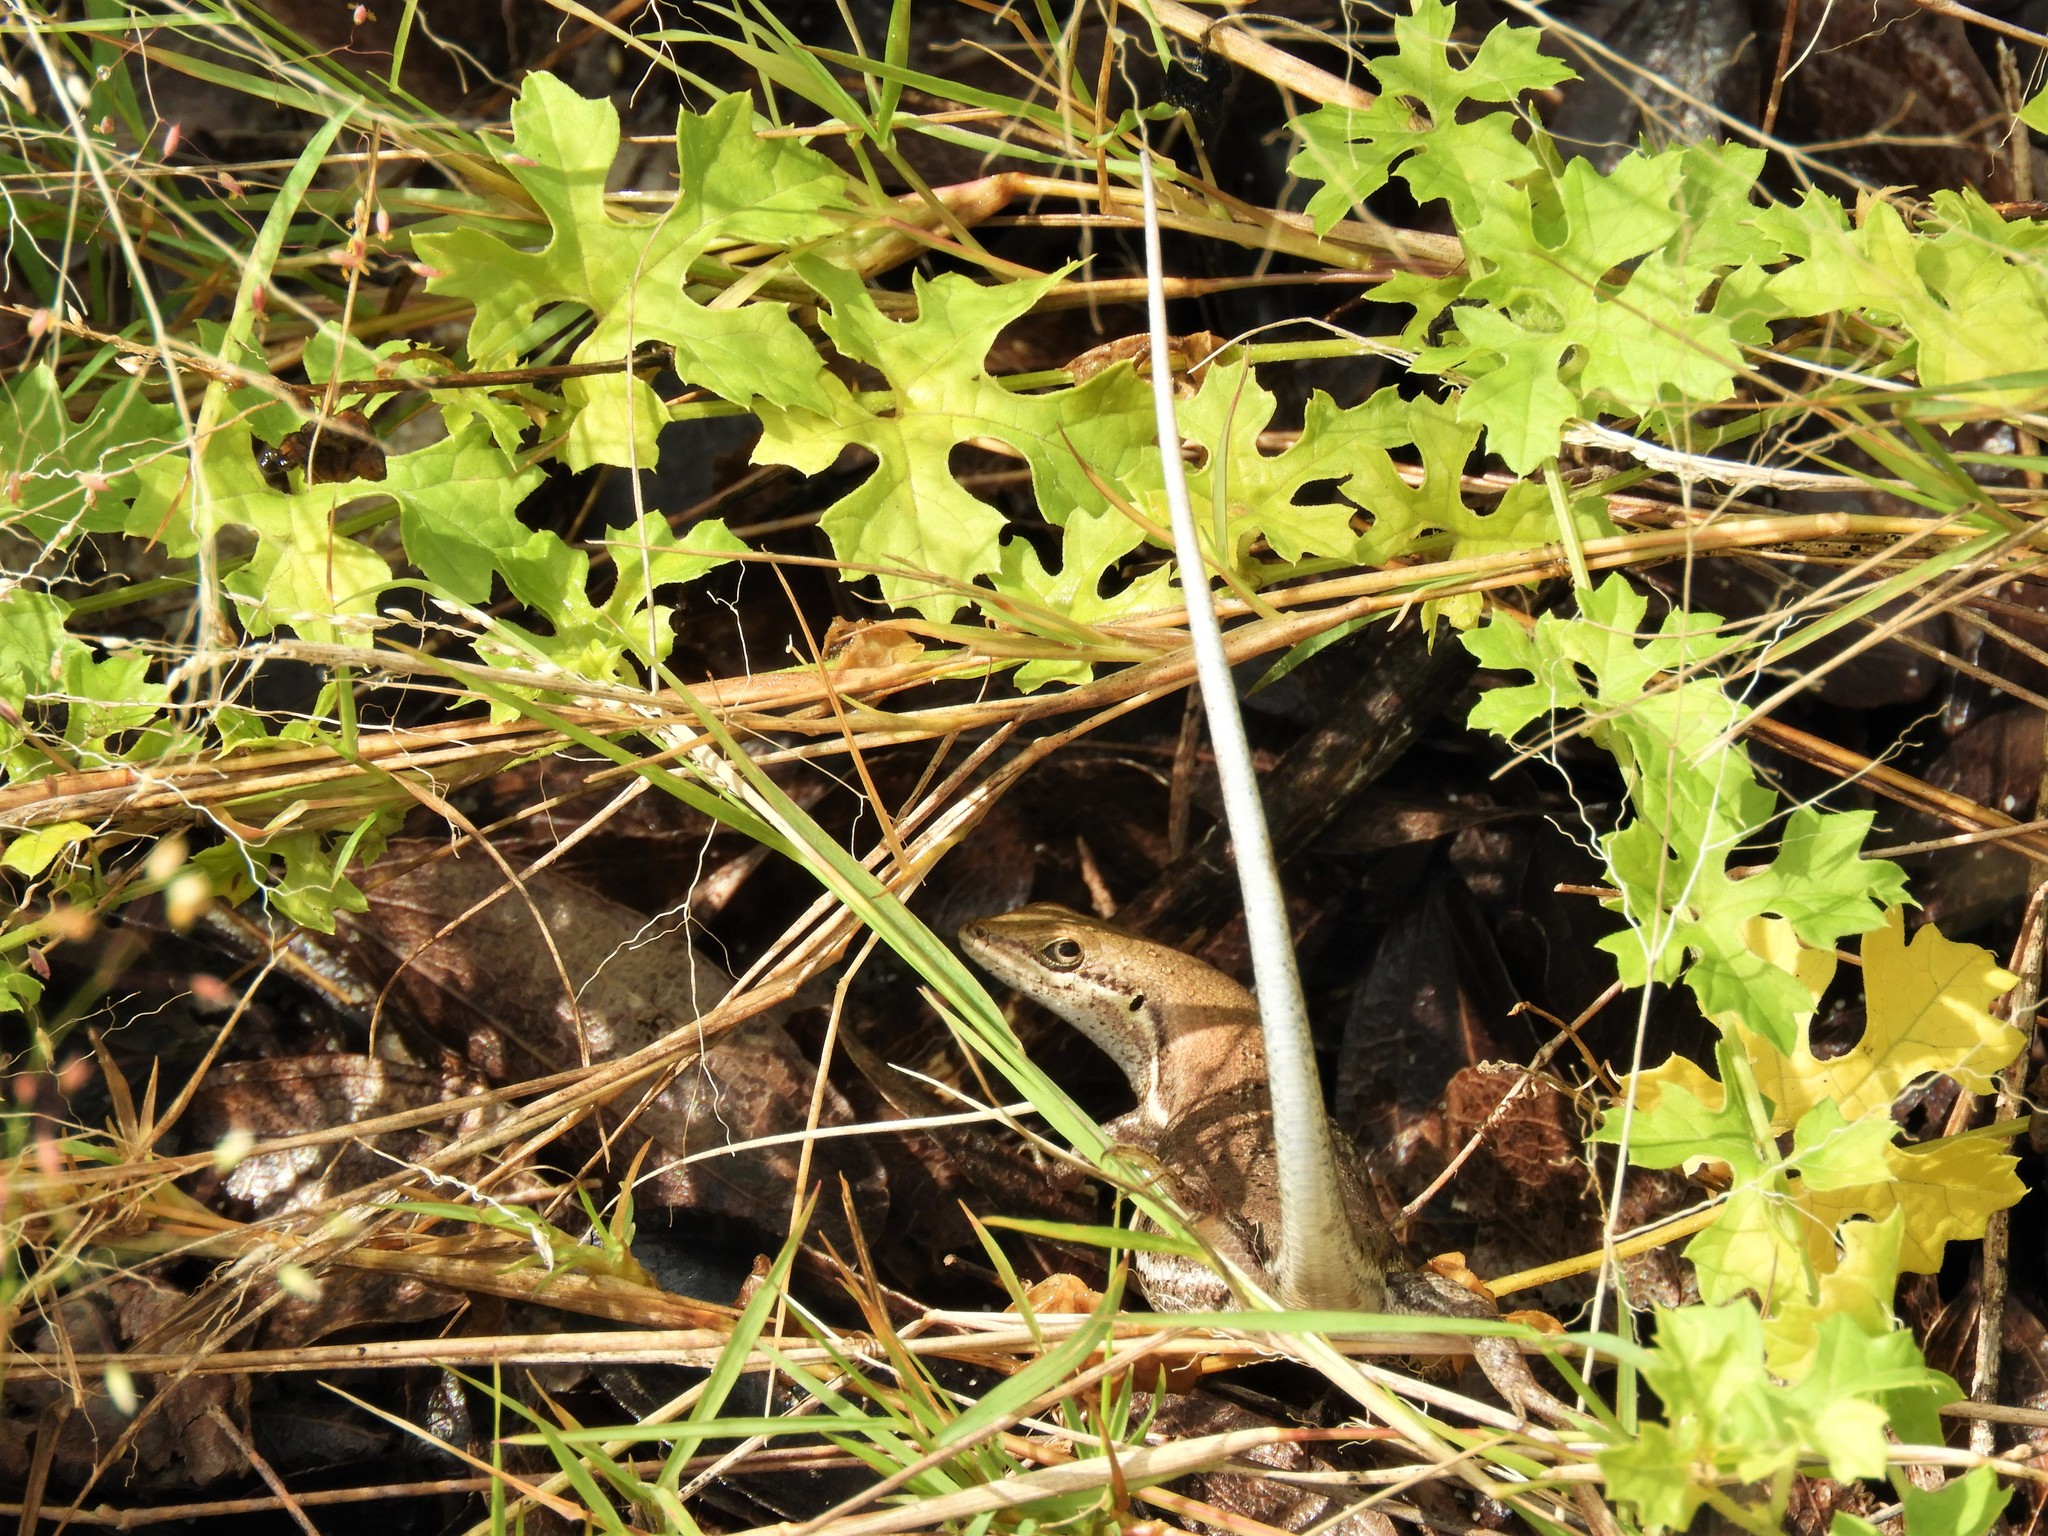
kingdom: Animalia
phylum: Chordata
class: Squamata
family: Scincidae
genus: Trachylepis
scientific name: Trachylepis varia
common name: Eastern variable skink
